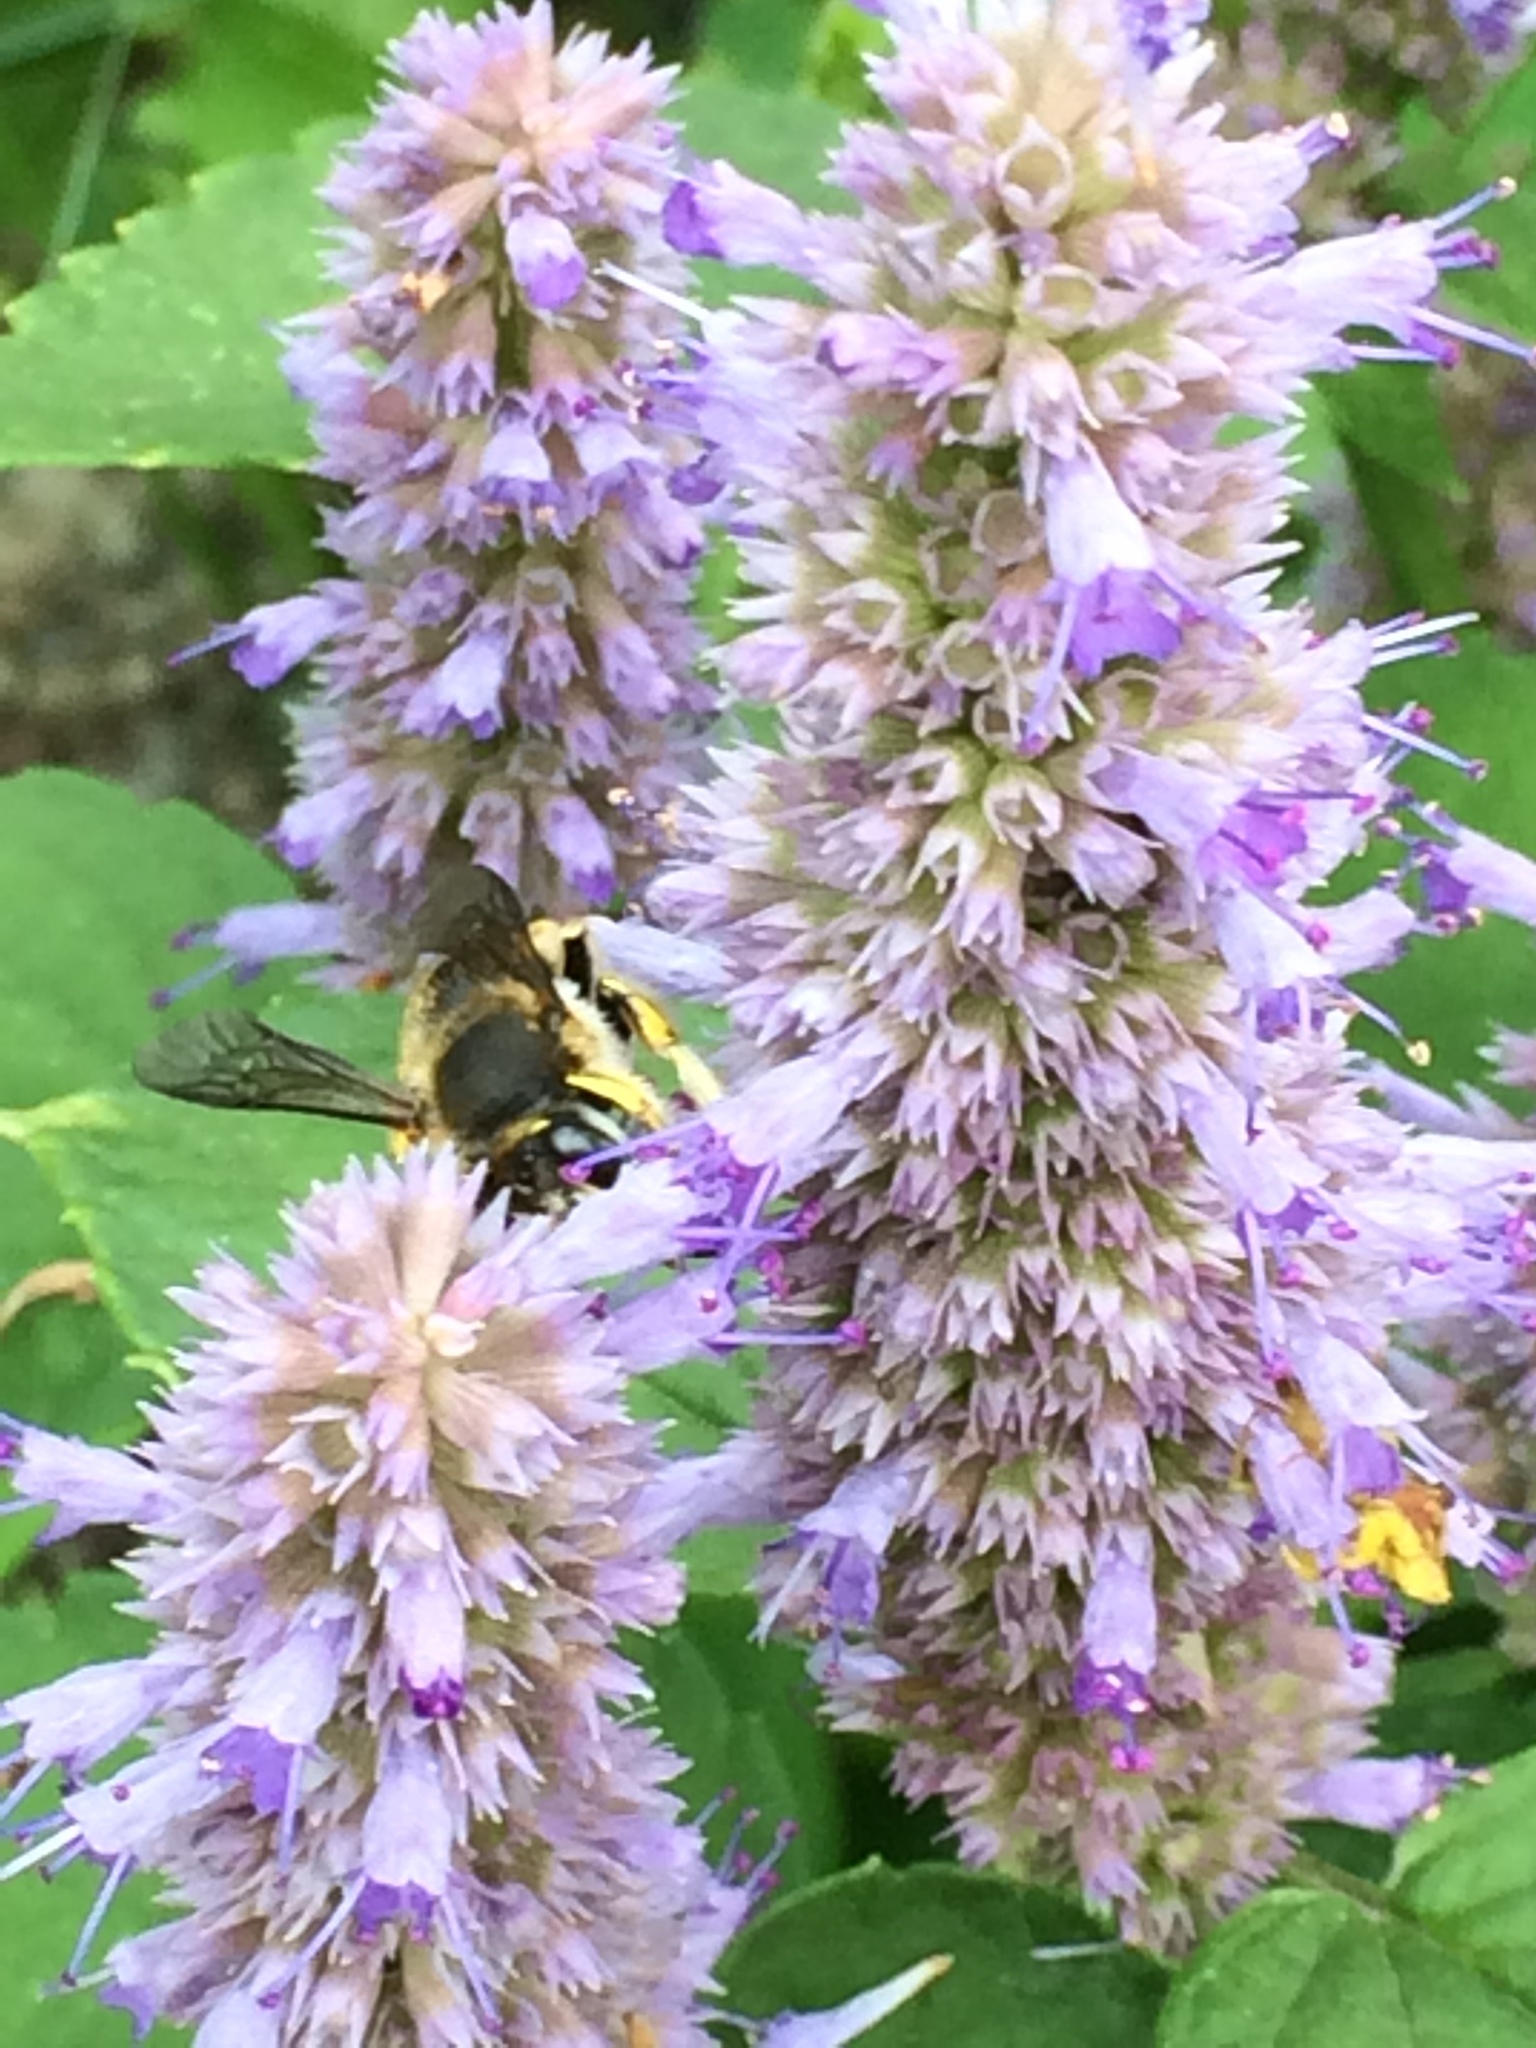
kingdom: Animalia
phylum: Arthropoda
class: Insecta
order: Hymenoptera
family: Megachilidae
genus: Anthidium
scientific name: Anthidium manicatum
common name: Wool carder bee
